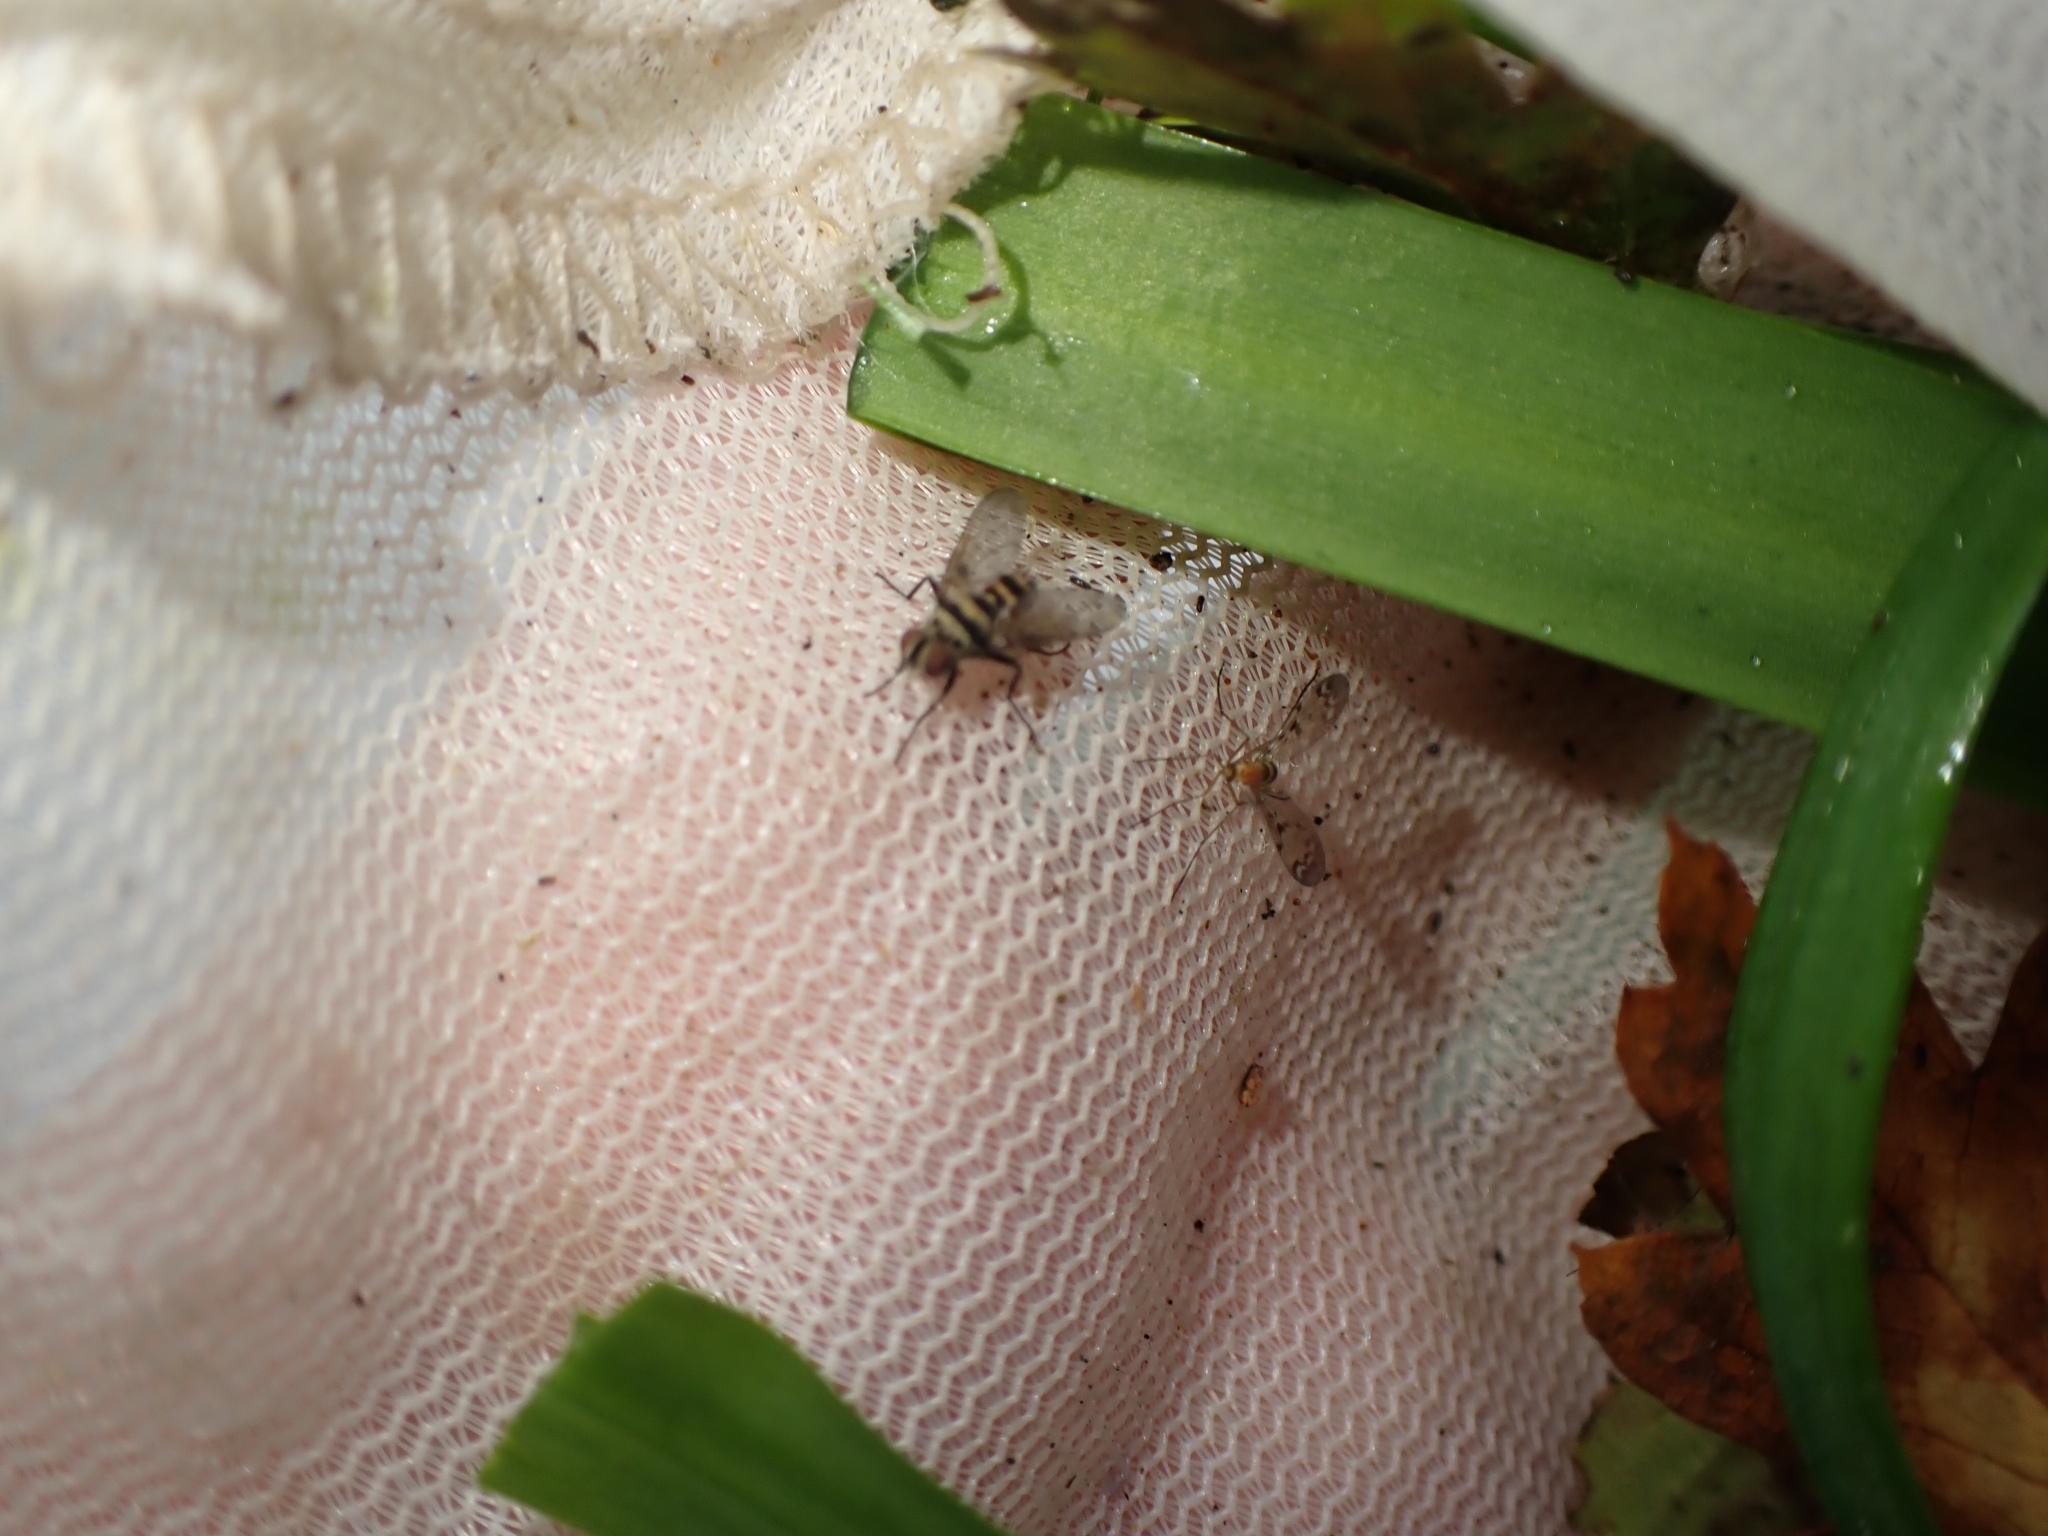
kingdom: Animalia
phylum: Arthropoda
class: Insecta
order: Diptera
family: Tachinidae
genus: Trigonospila
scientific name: Trigonospila brevifacies
